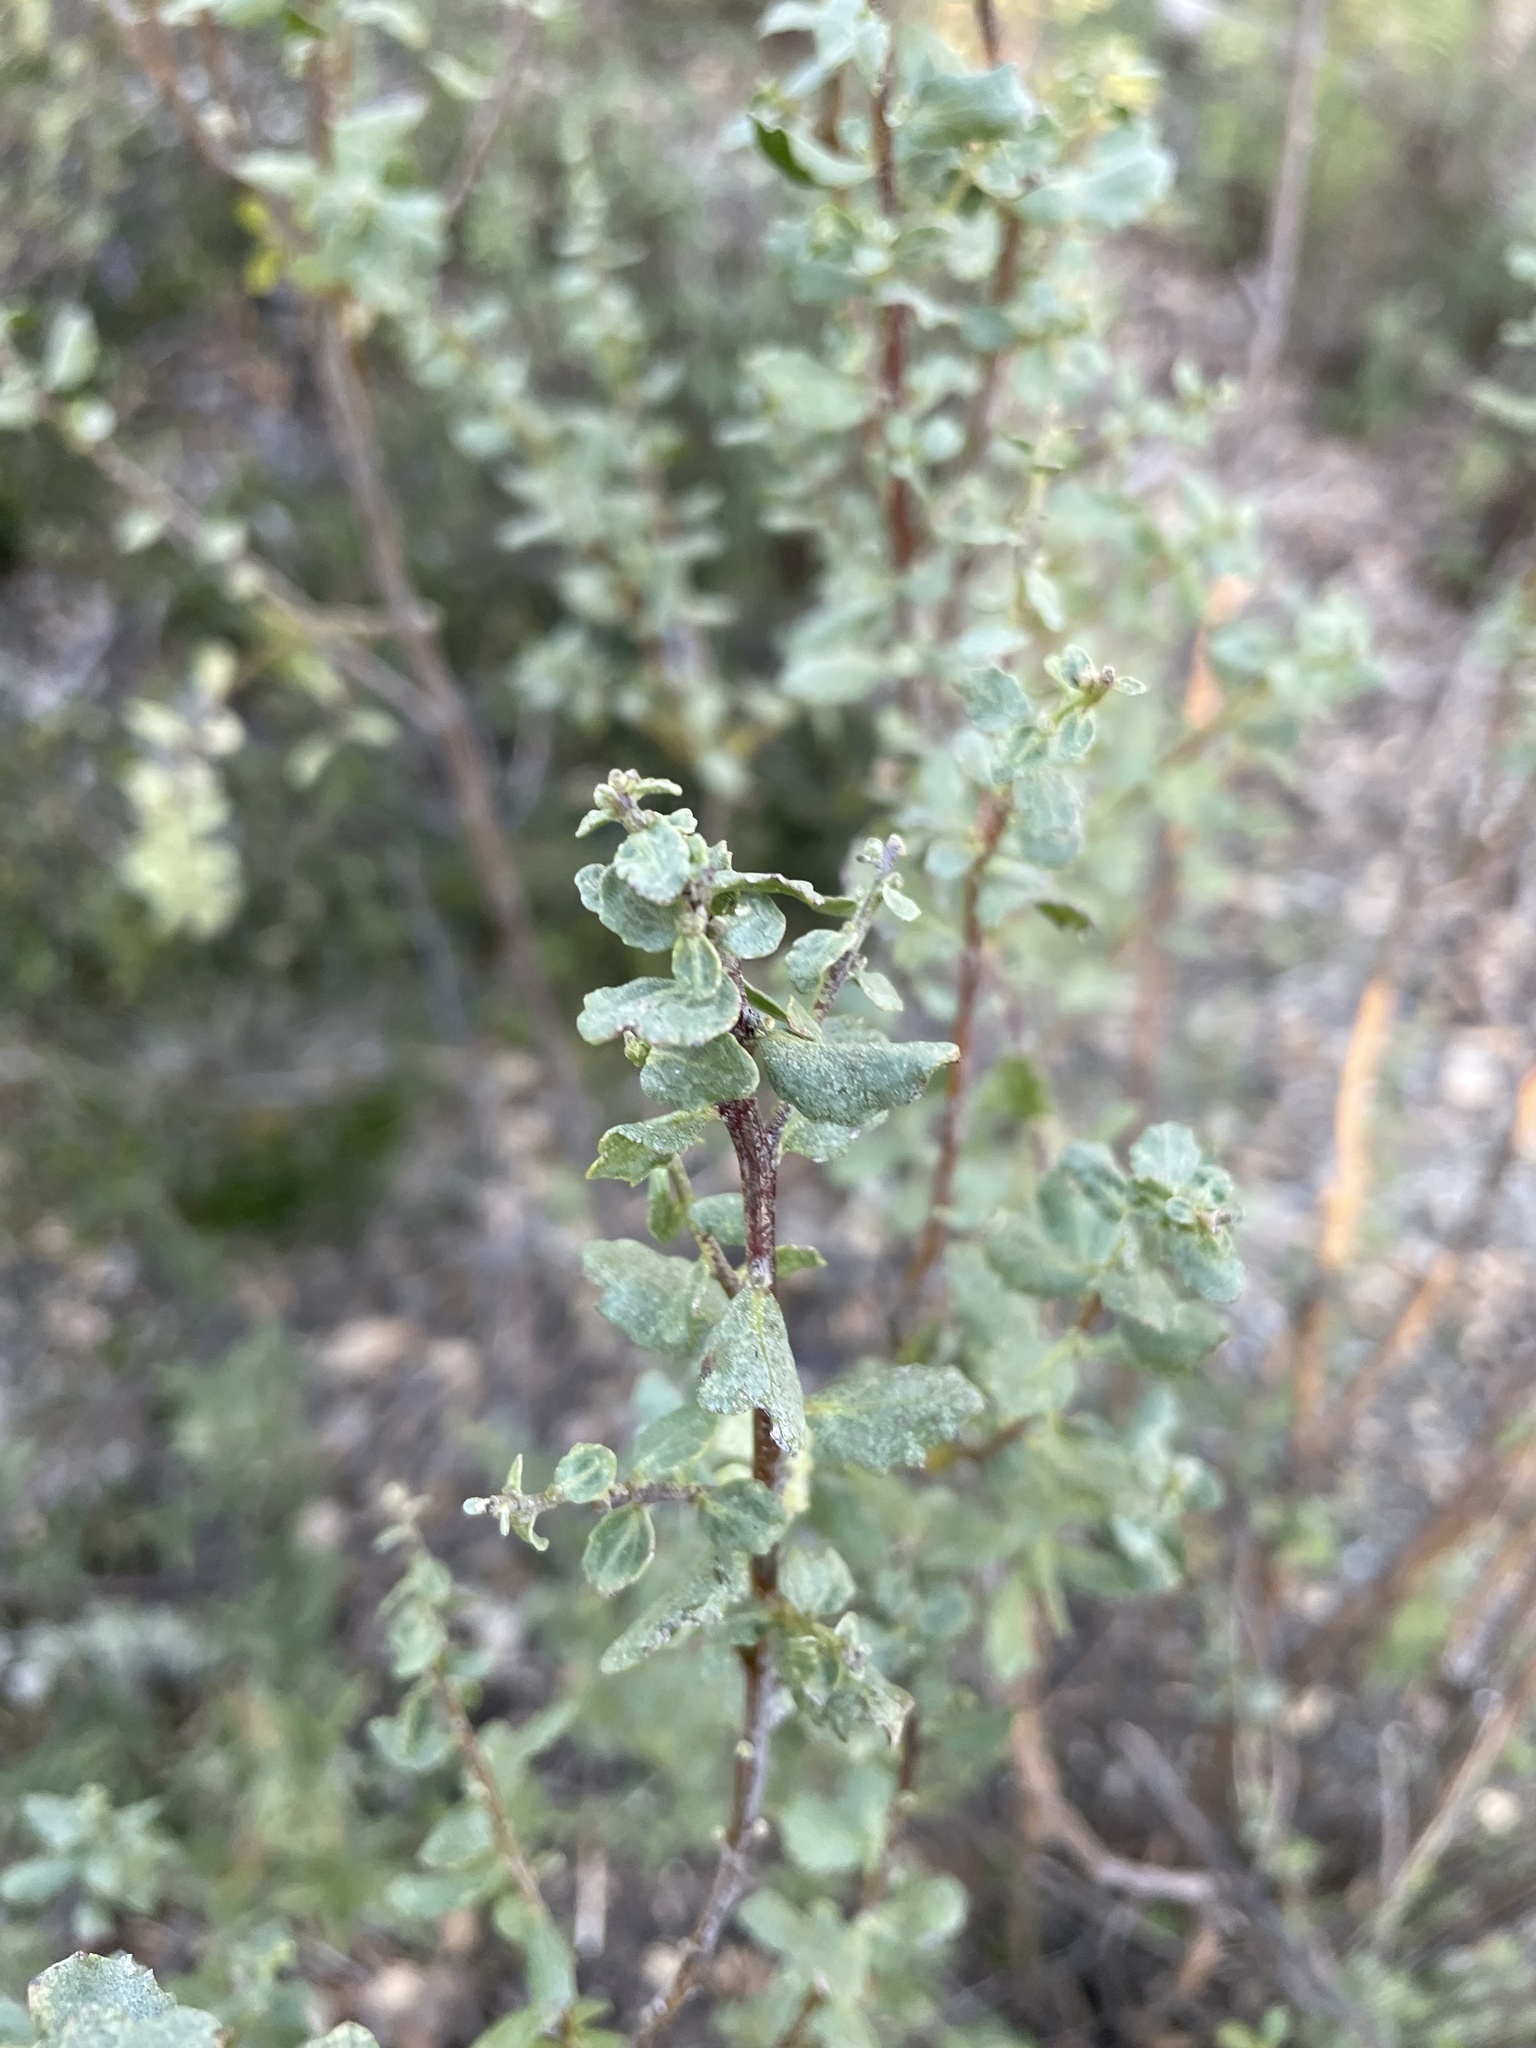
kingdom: Plantae
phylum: Tracheophyta
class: Magnoliopsida
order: Asterales
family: Asteraceae
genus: Baccharis
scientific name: Baccharis pilularis
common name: Coyotebrush
